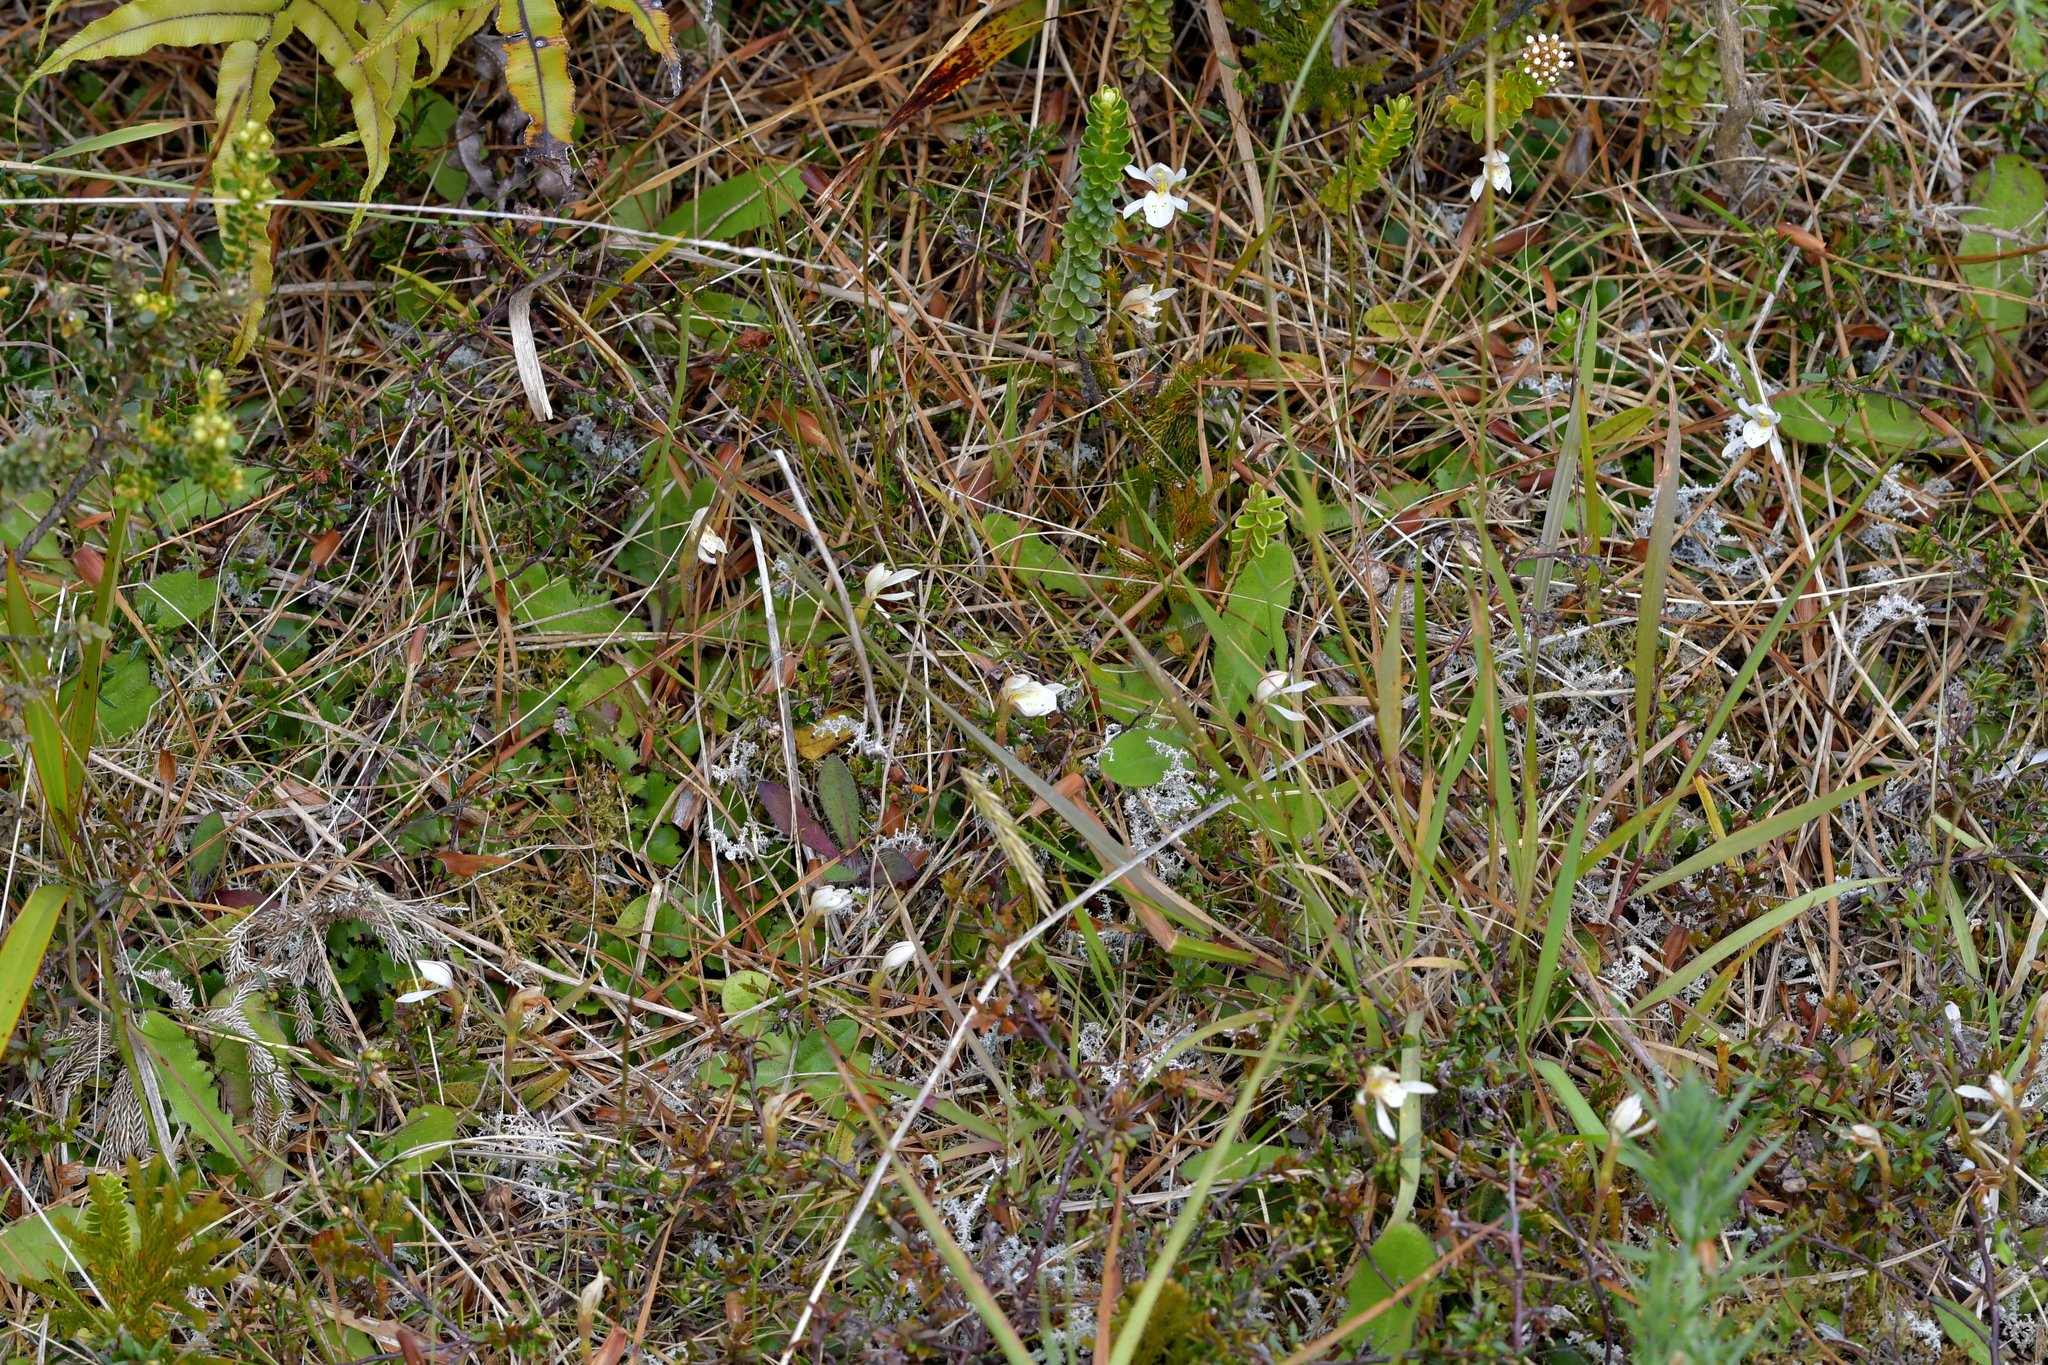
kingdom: Plantae
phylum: Tracheophyta
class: Liliopsida
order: Asparagales
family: Orchidaceae
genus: Aporostylis
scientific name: Aporostylis bifolia
